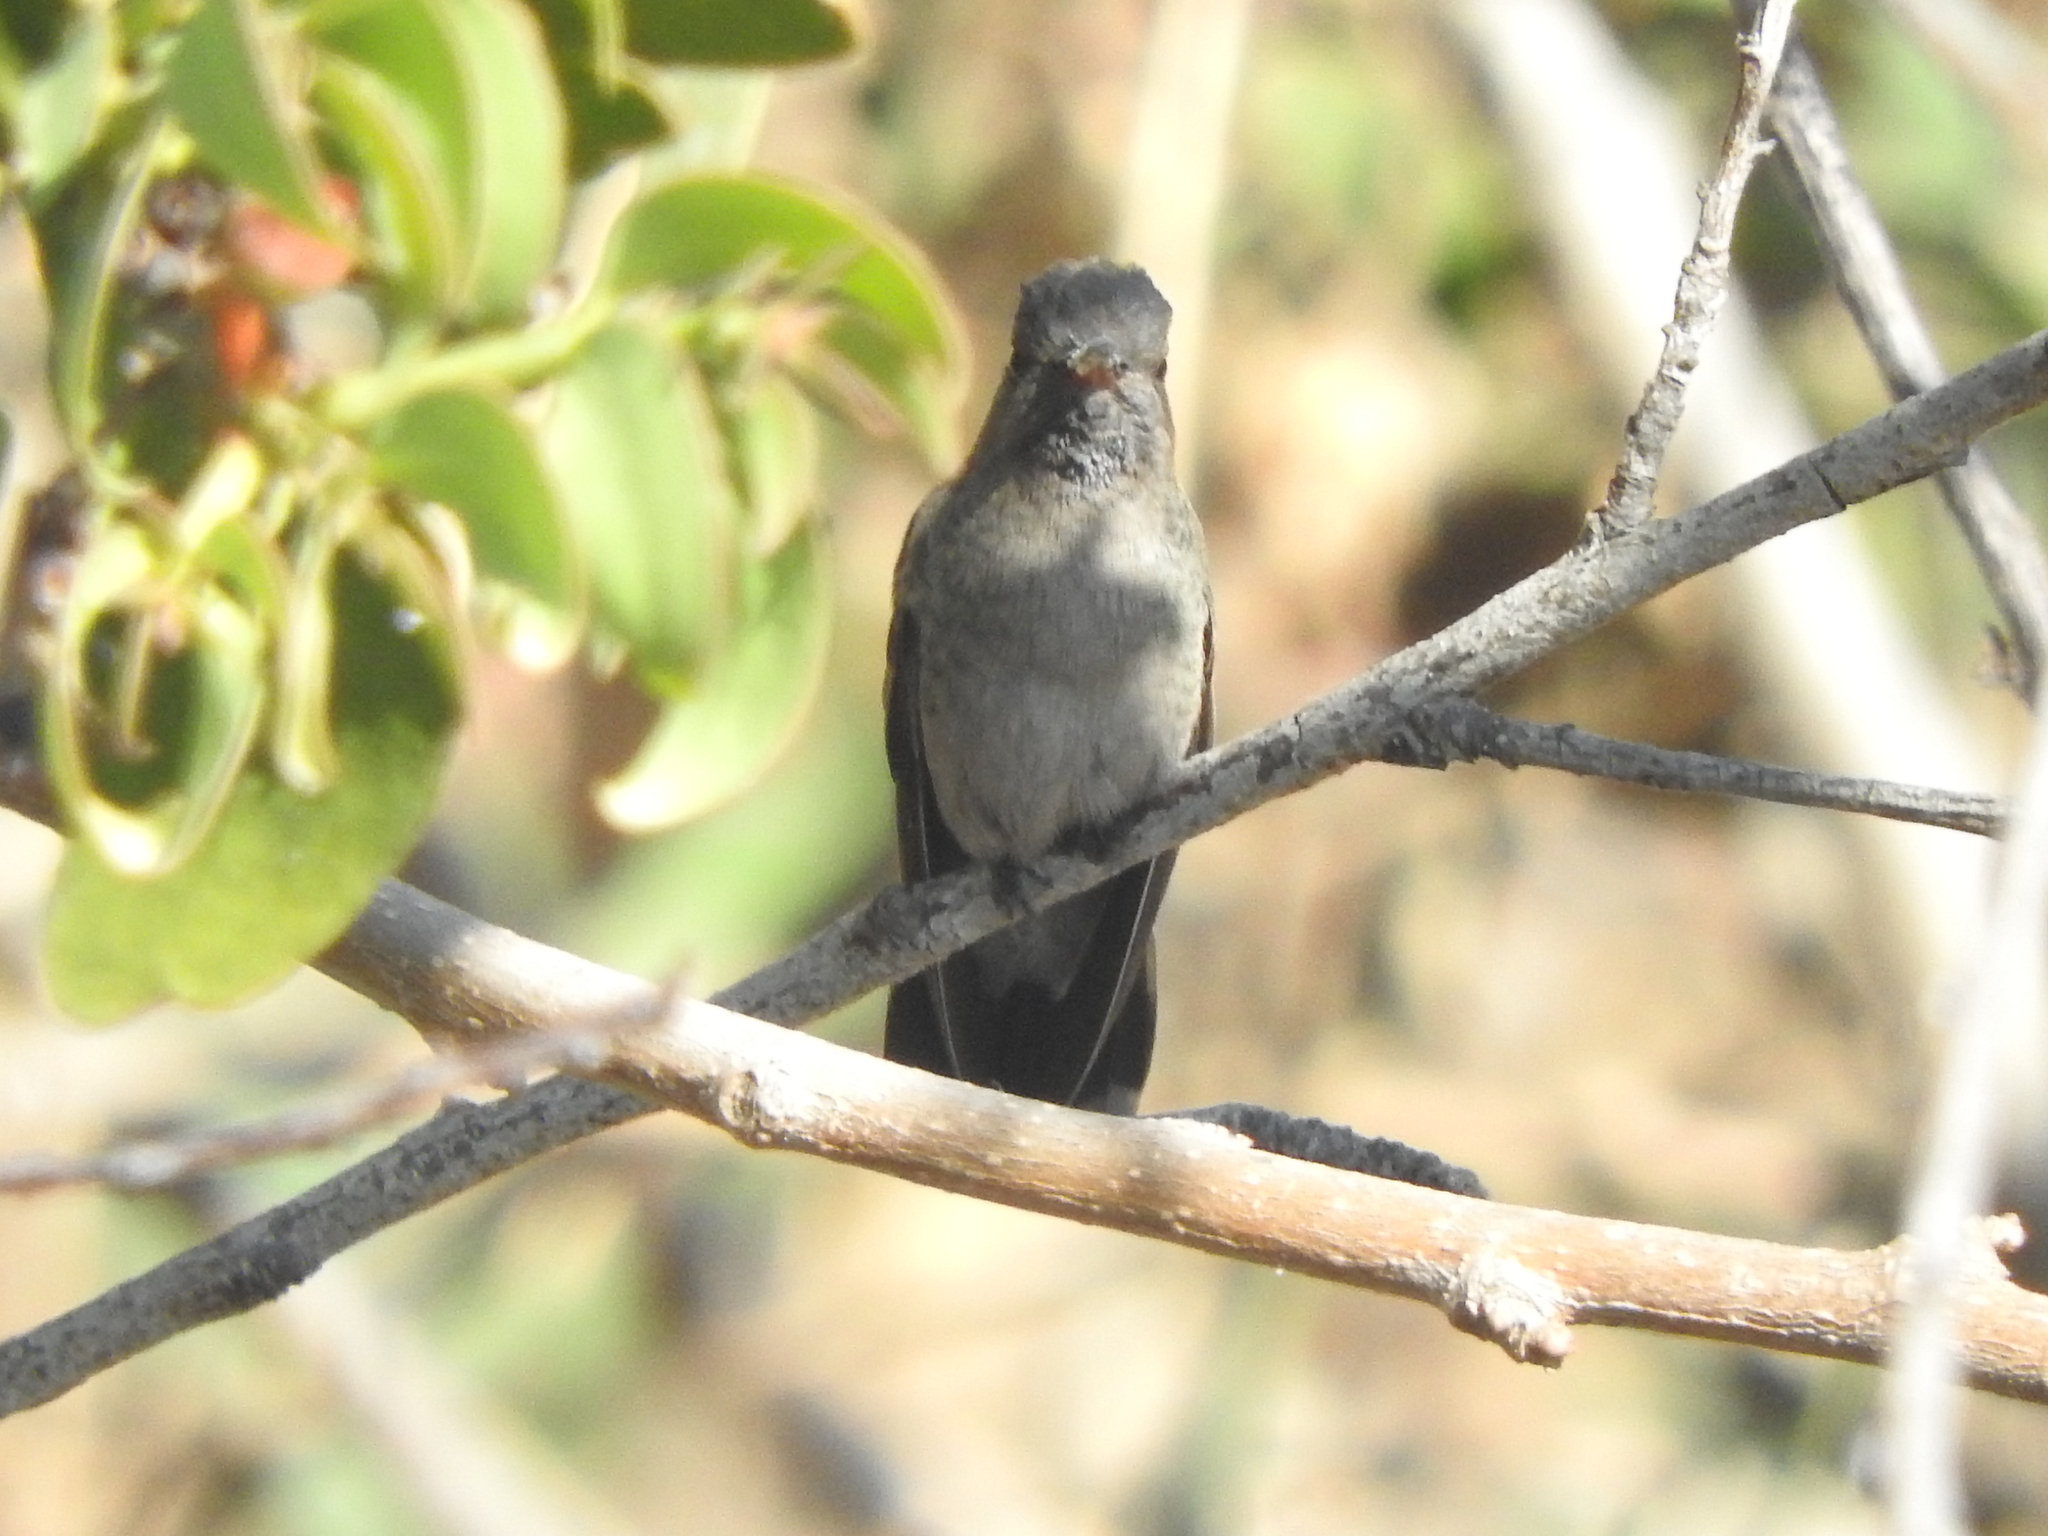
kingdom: Animalia
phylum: Chordata
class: Aves
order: Apodiformes
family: Trochilidae
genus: Cynanthus
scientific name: Cynanthus latirostris
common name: Broad-billed hummingbird
